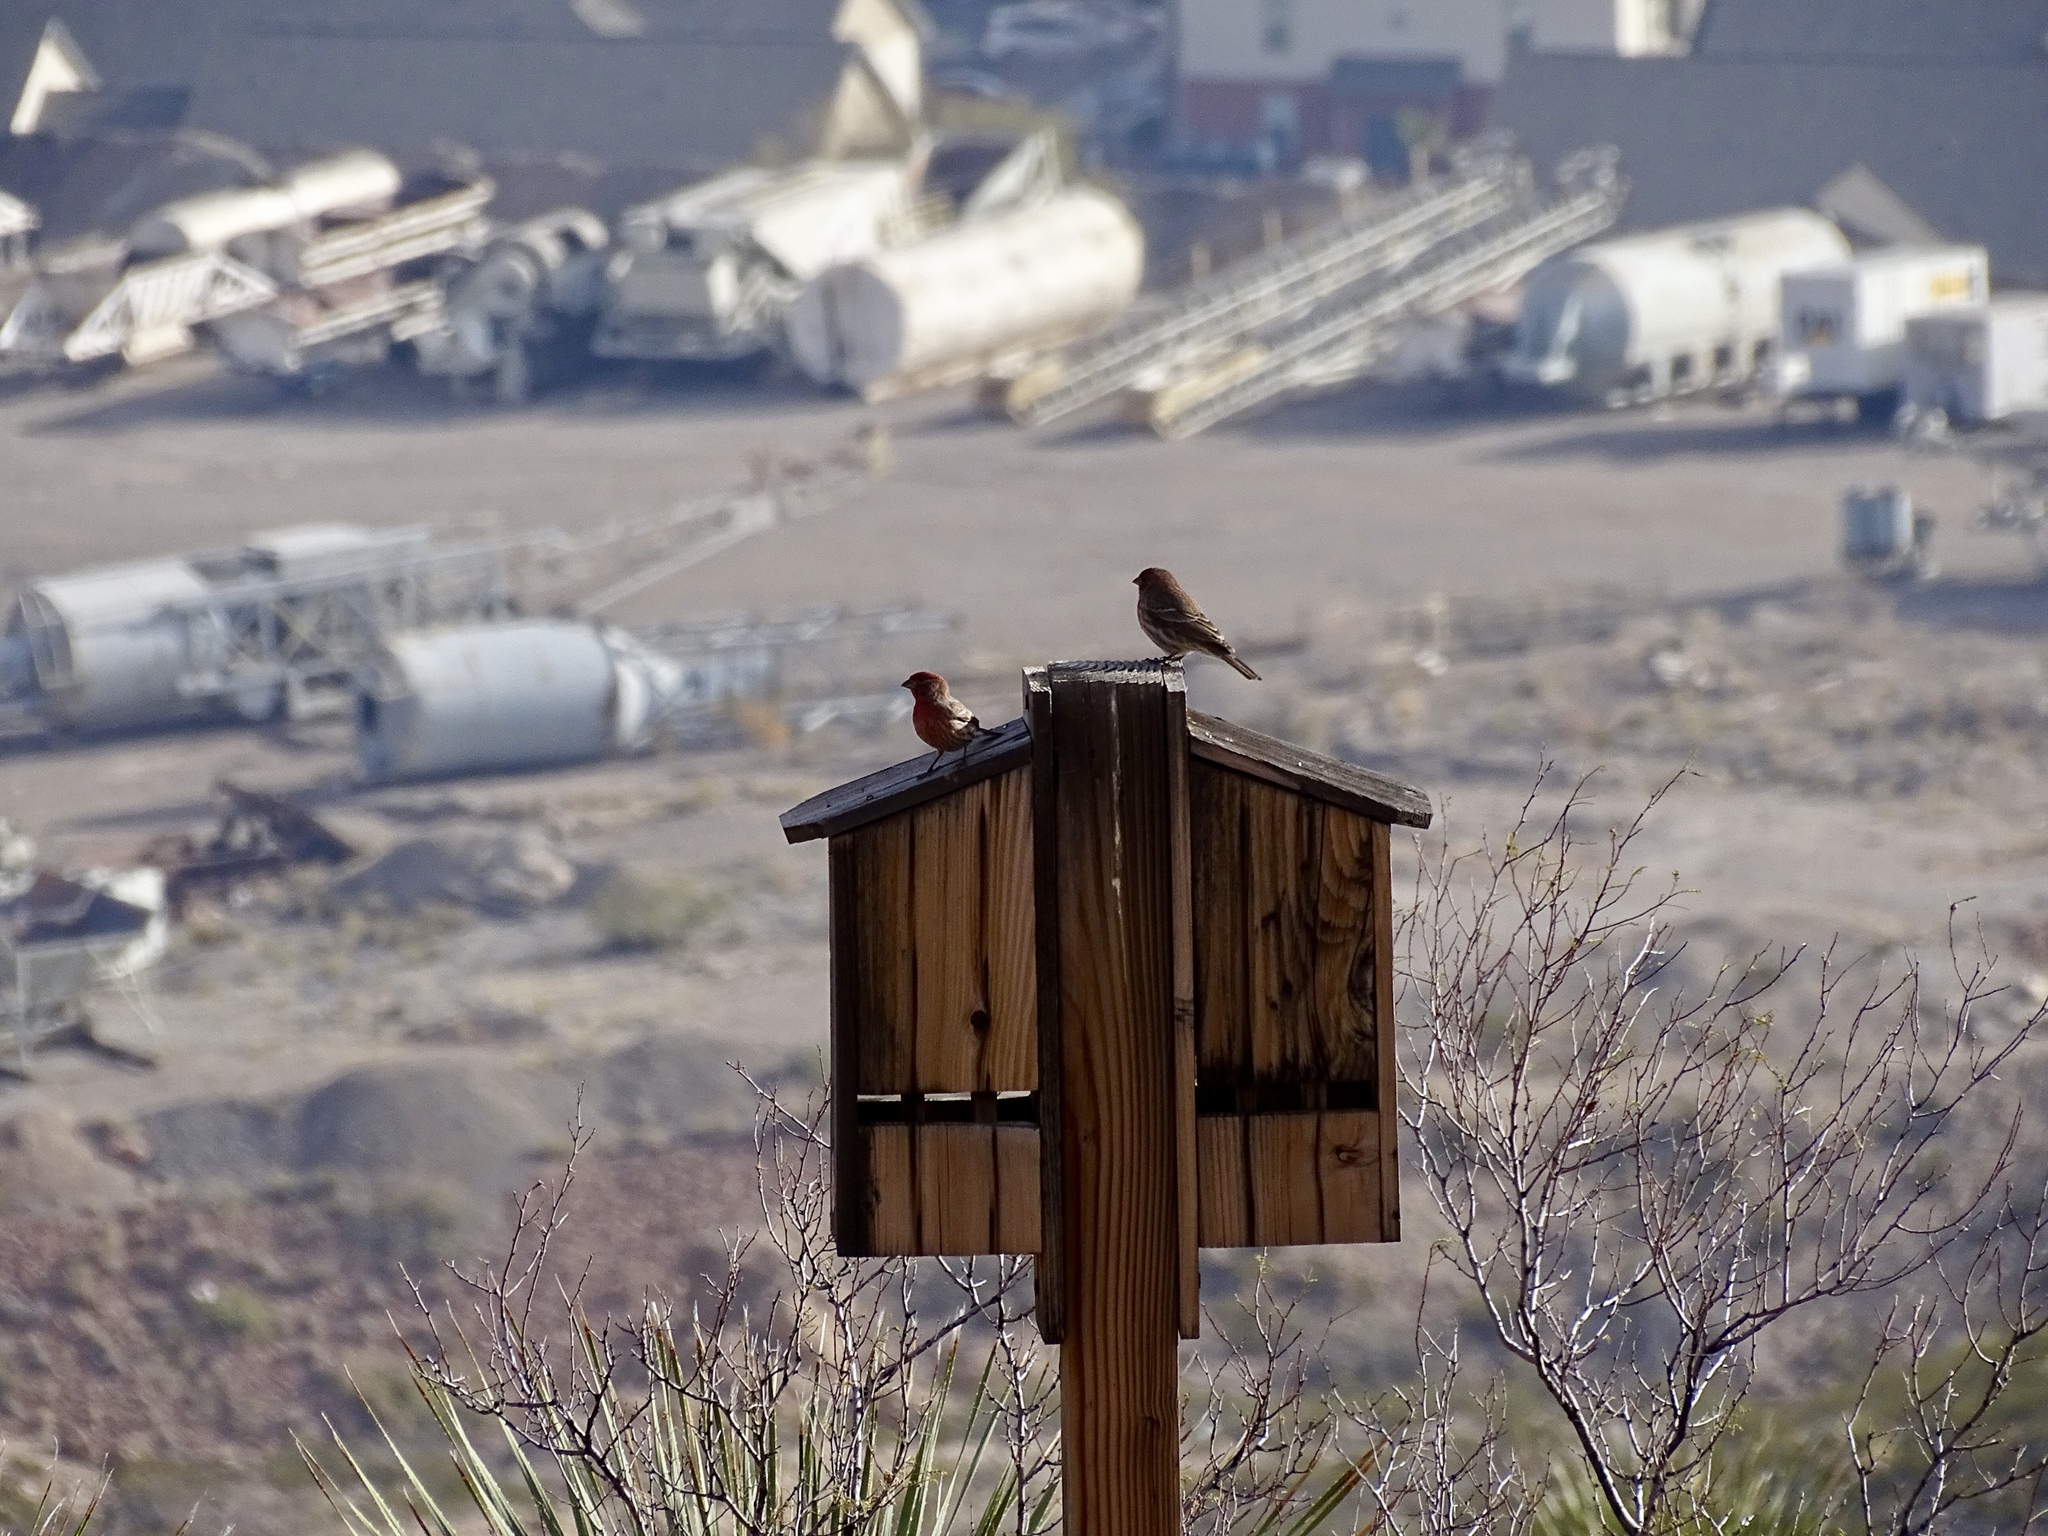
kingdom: Animalia
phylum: Chordata
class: Aves
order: Passeriformes
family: Fringillidae
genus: Haemorhous
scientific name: Haemorhous mexicanus
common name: House finch
